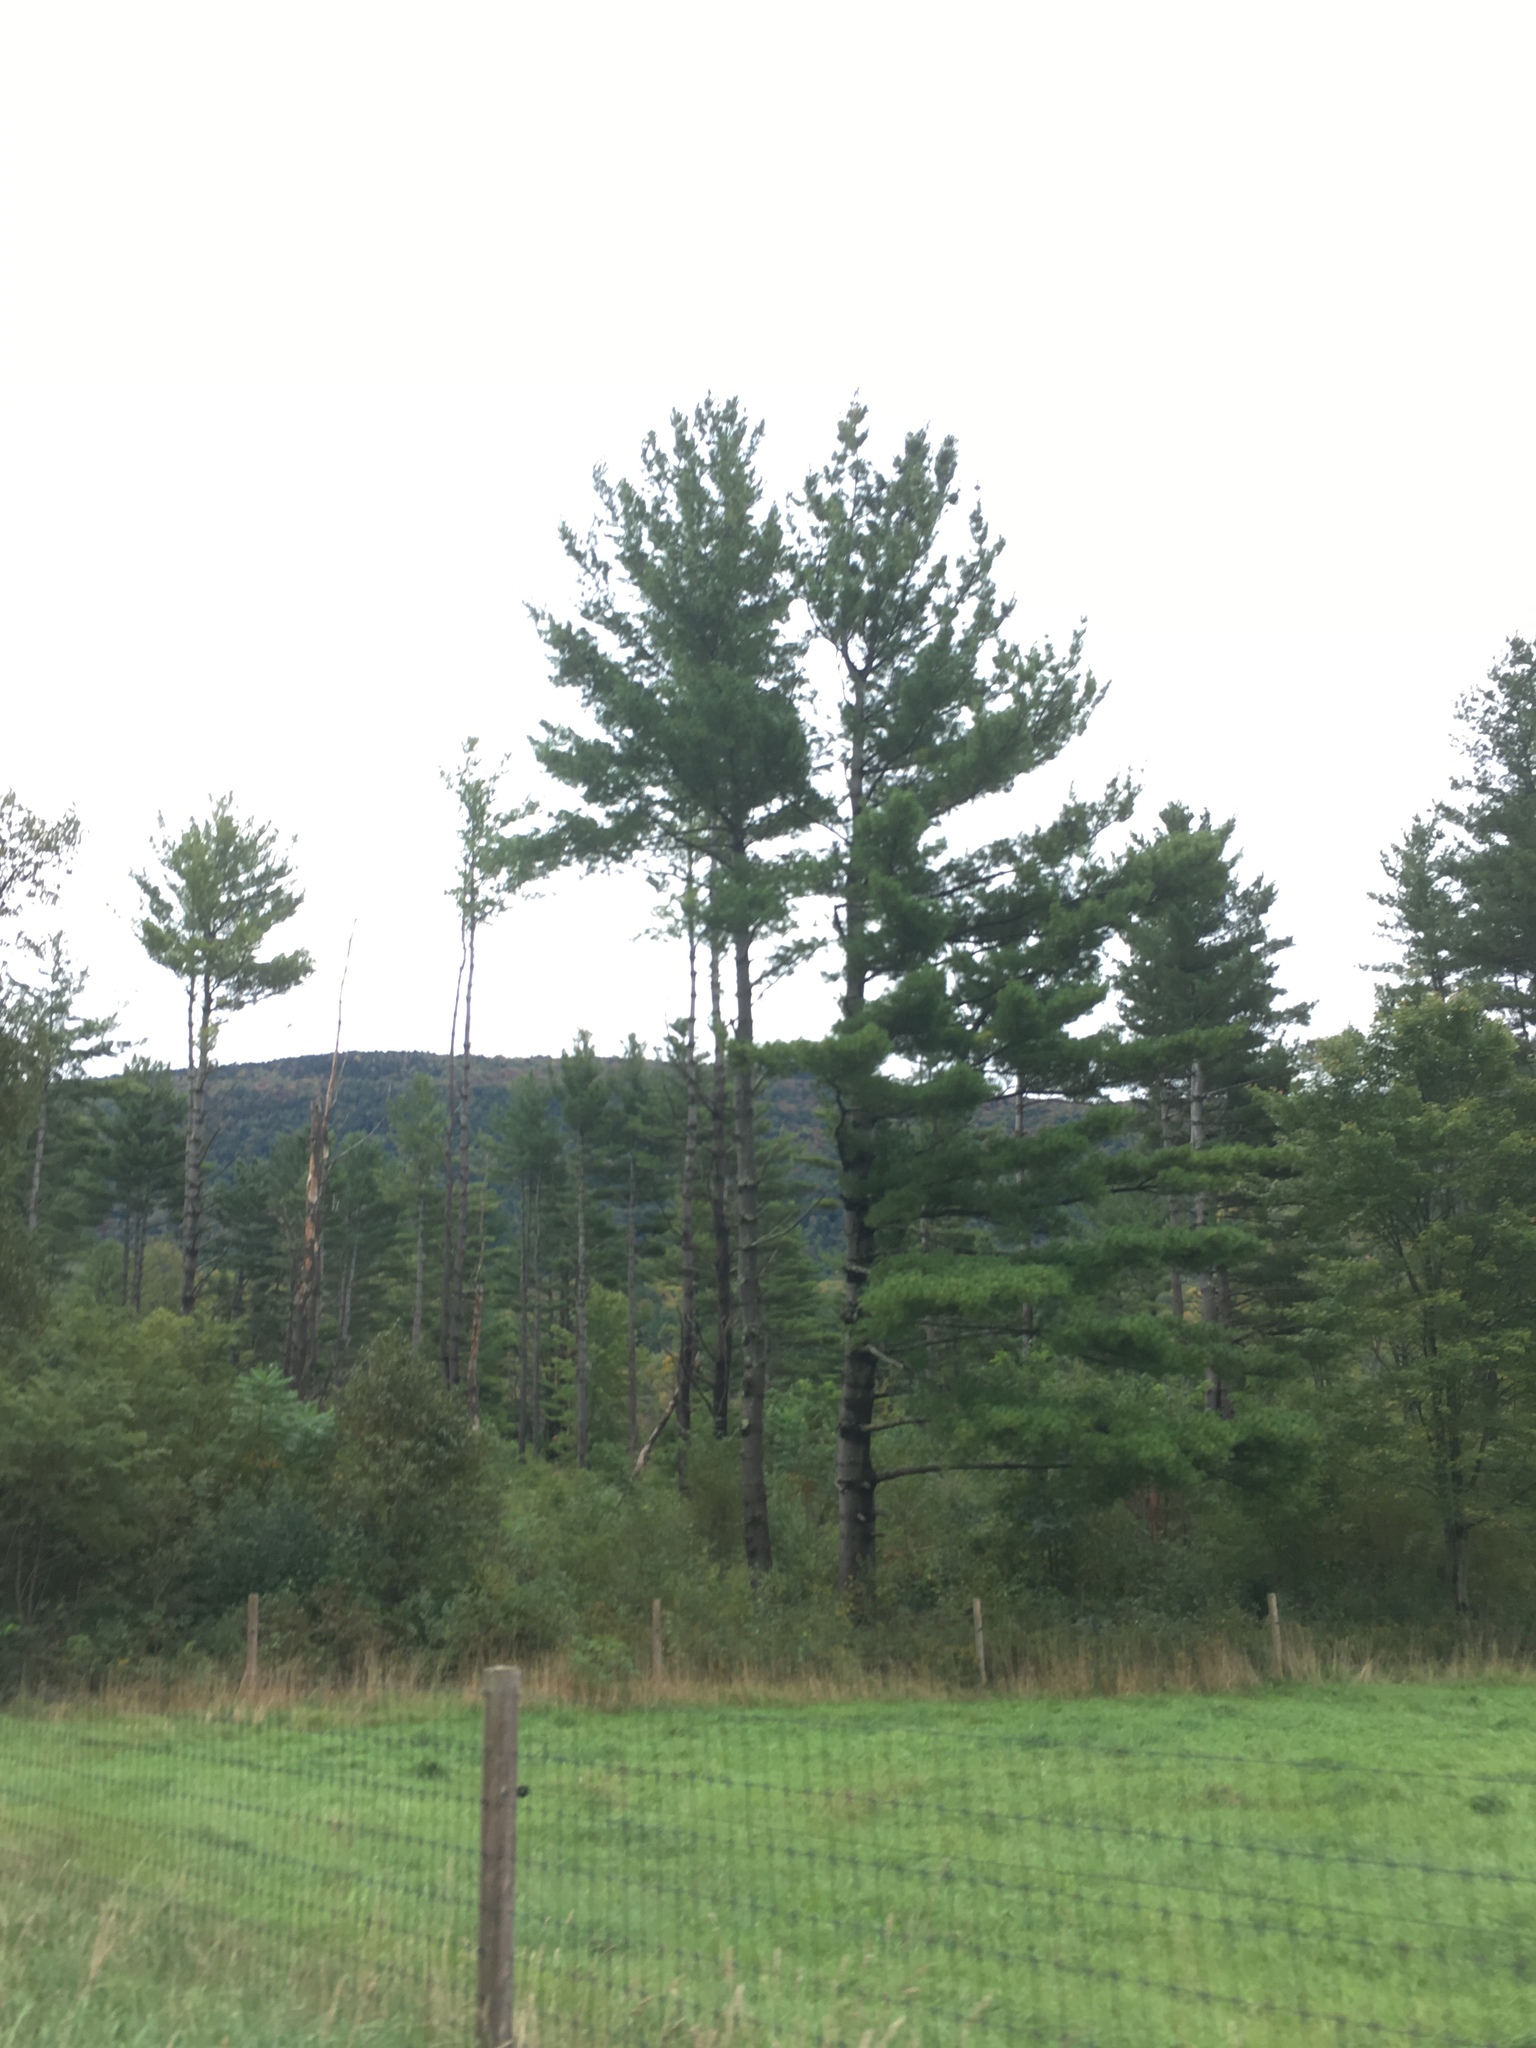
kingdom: Plantae
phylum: Tracheophyta
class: Pinopsida
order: Pinales
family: Pinaceae
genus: Pinus
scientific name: Pinus strobus
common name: Weymouth pine
